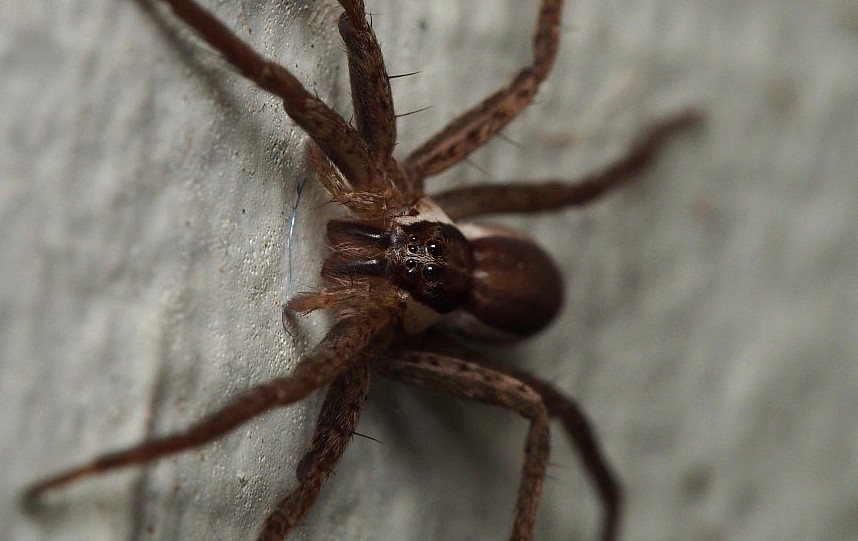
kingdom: Animalia
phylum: Arthropoda
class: Arachnida
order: Araneae
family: Pisauridae
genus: Dolomedes
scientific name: Dolomedes minor
